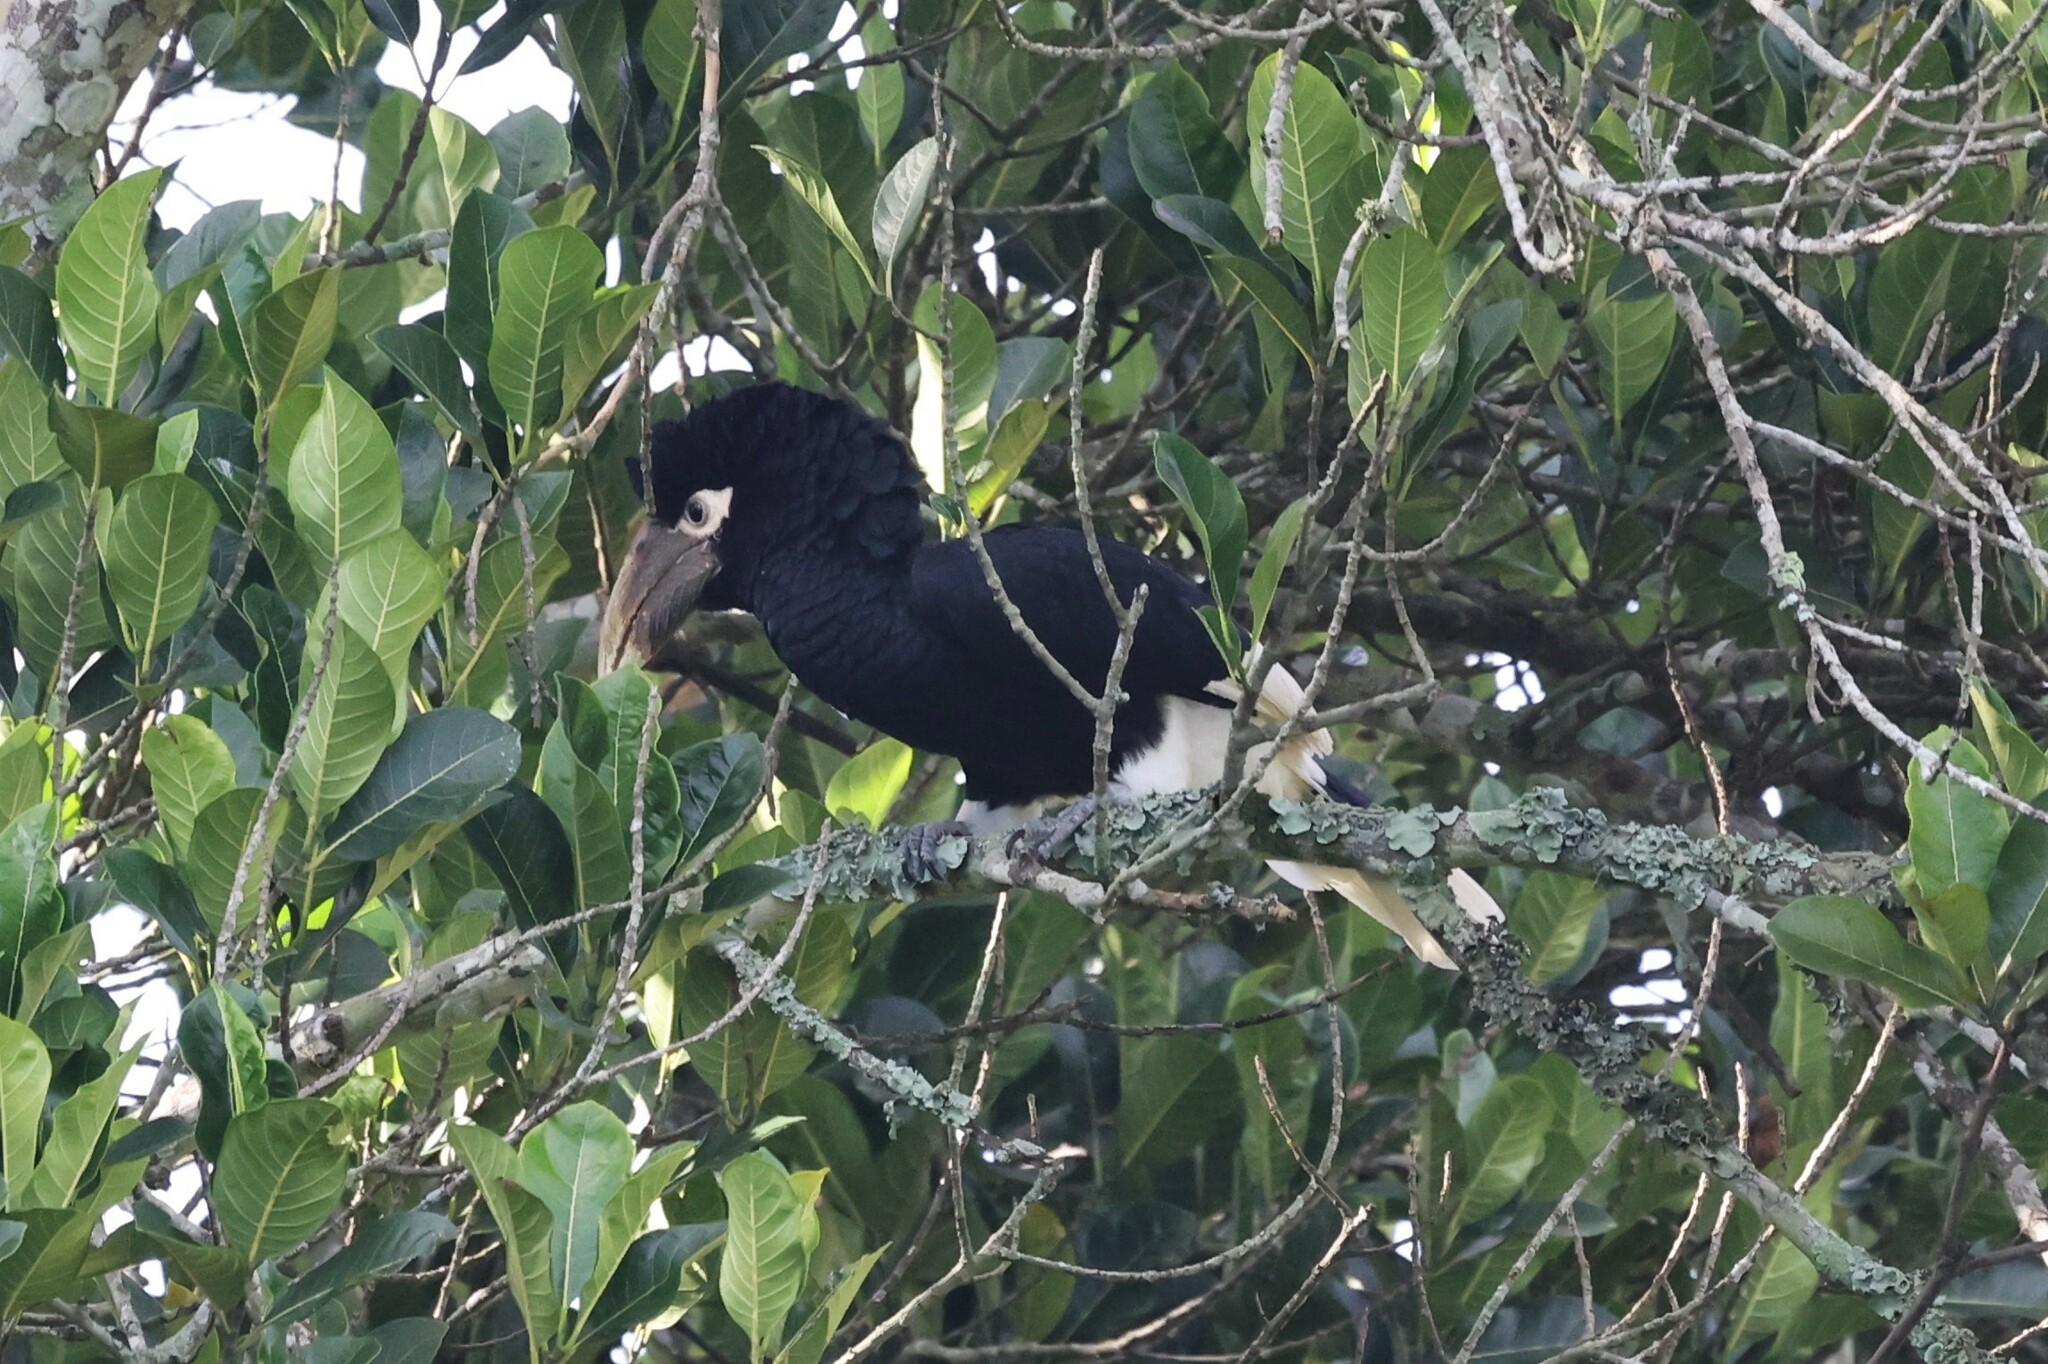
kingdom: Animalia
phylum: Chordata
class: Aves
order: Bucerotiformes
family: Bucerotidae
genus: Bycanistes
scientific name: Bycanistes albotibialis
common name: White-thighed hornbill
